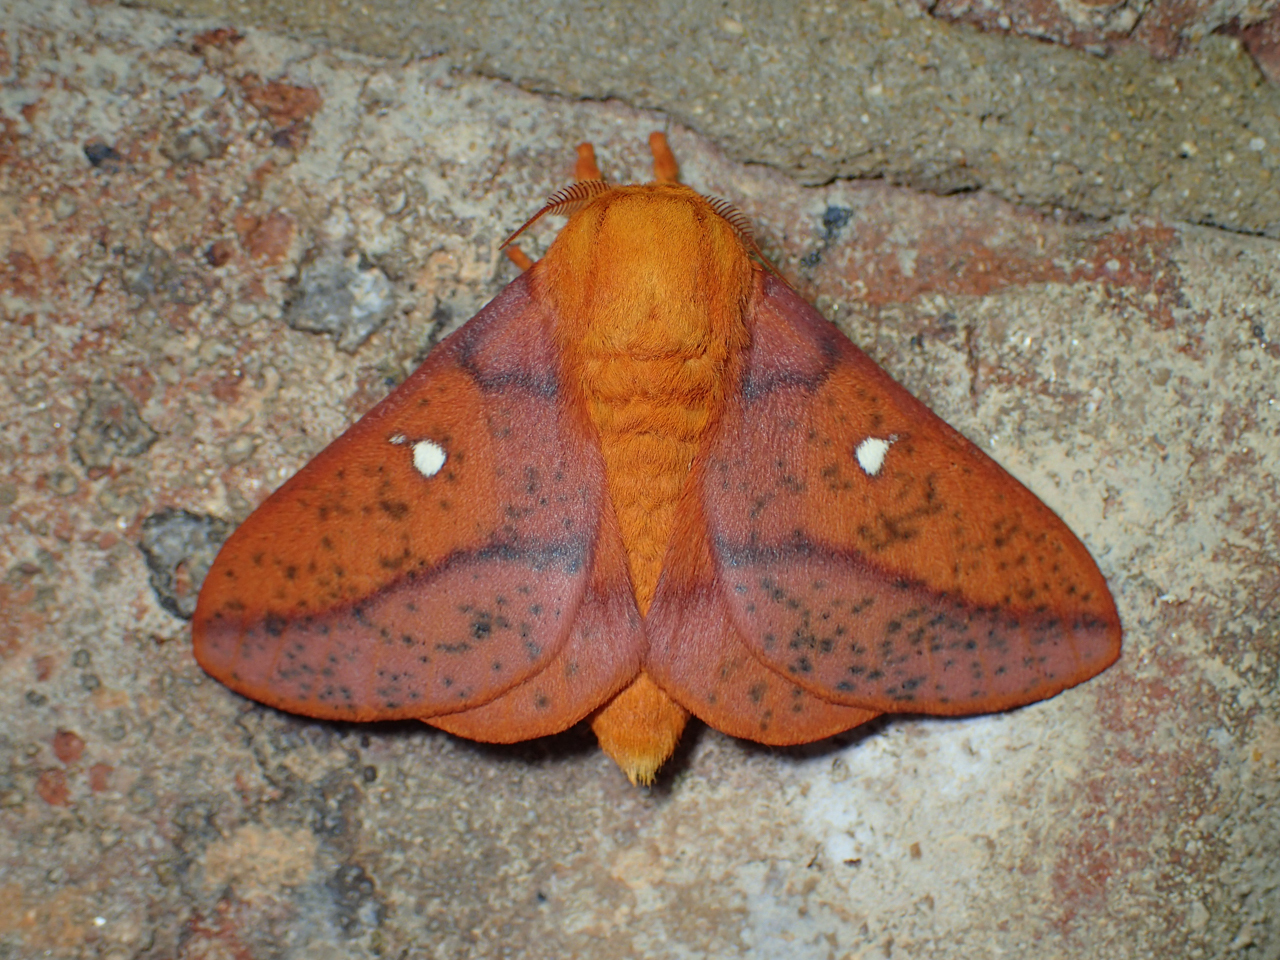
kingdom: Animalia
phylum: Arthropoda
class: Insecta
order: Lepidoptera
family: Saturniidae
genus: Anisota
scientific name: Anisota stigma
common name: Spiny oakworm moth
